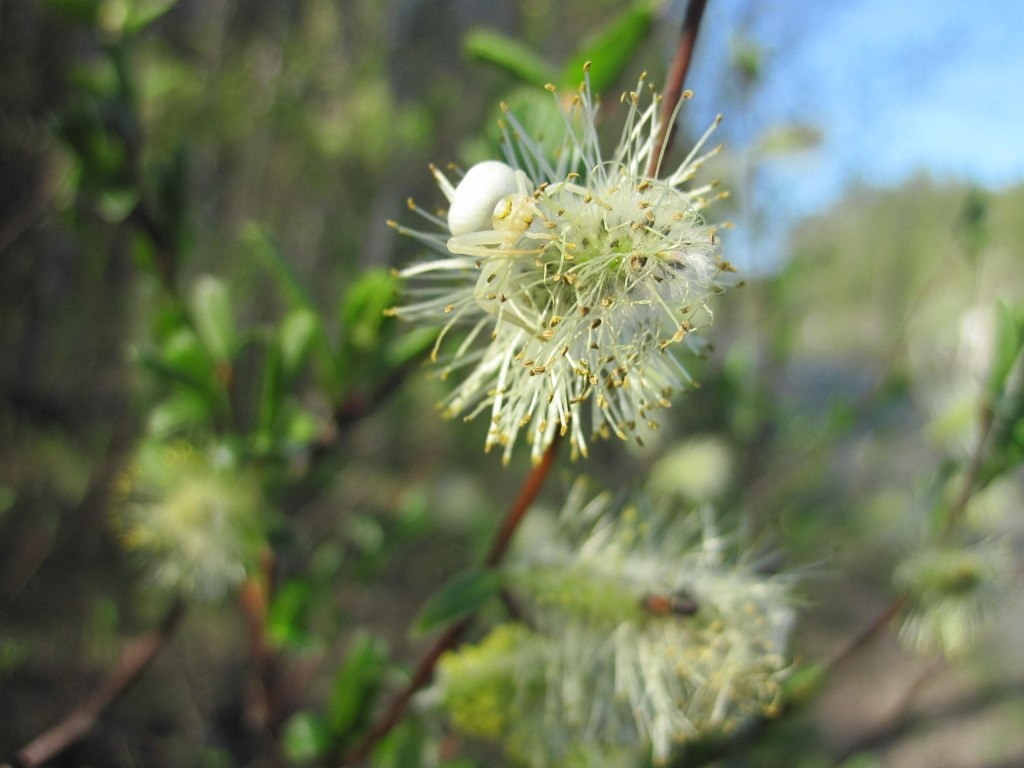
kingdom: Animalia
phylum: Arthropoda
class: Arachnida
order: Araneae
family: Thomisidae
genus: Misumena
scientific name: Misumena vatia
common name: Goldenrod crab spider
